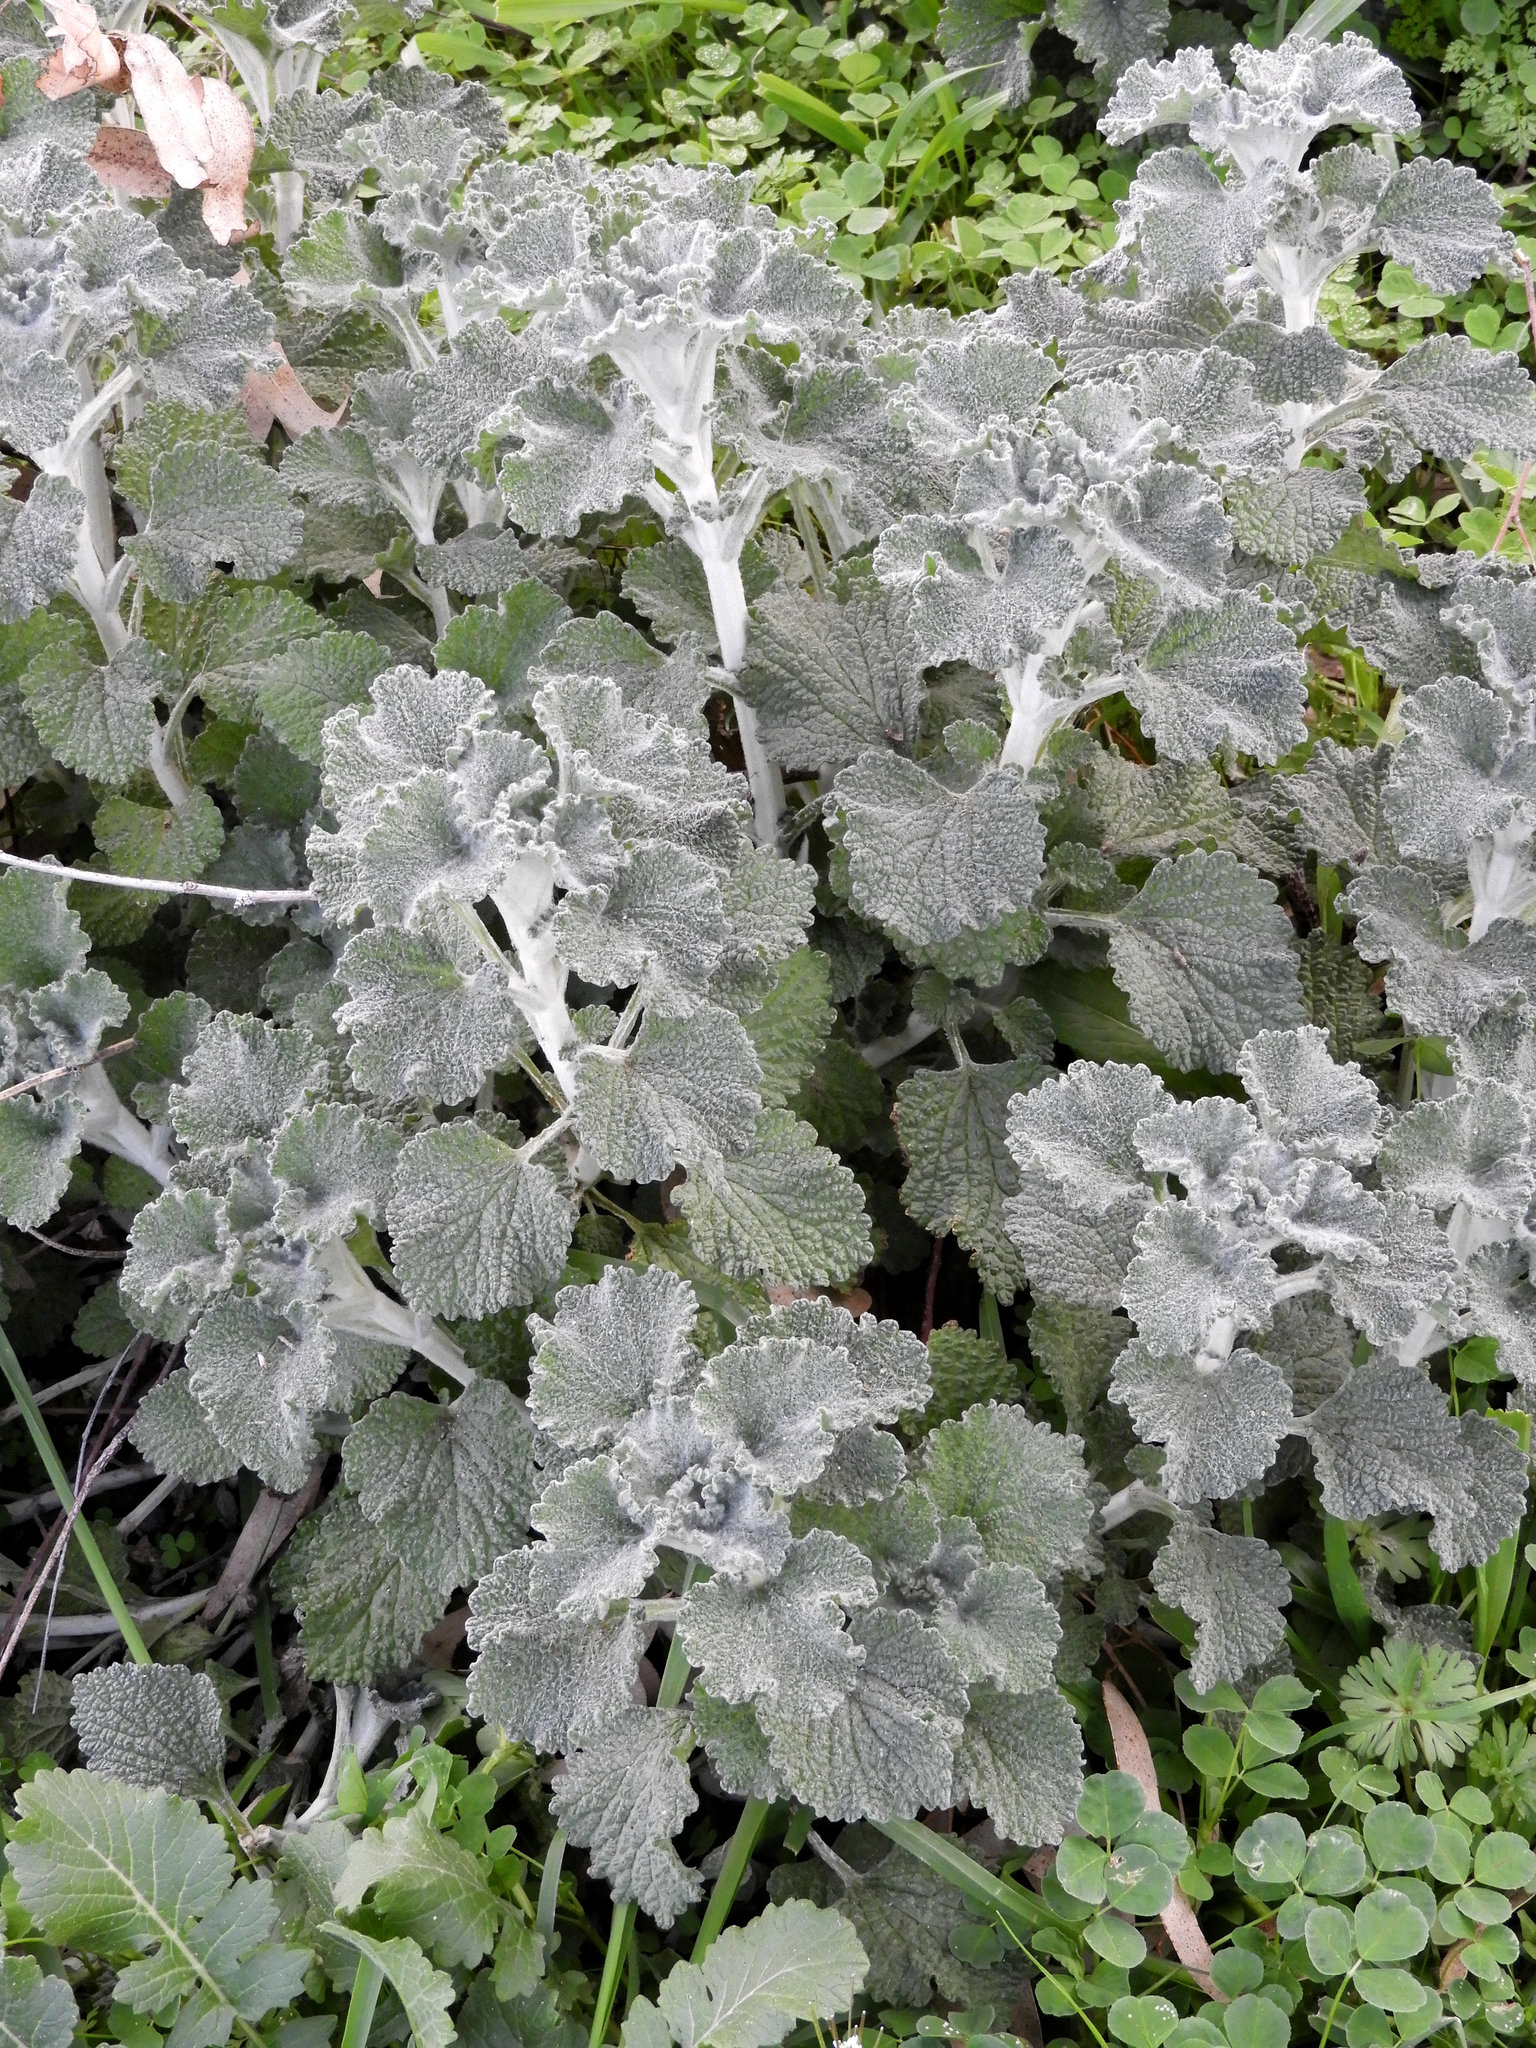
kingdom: Plantae
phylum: Tracheophyta
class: Magnoliopsida
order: Lamiales
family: Lamiaceae
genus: Marrubium
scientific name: Marrubium vulgare
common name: Horehound
